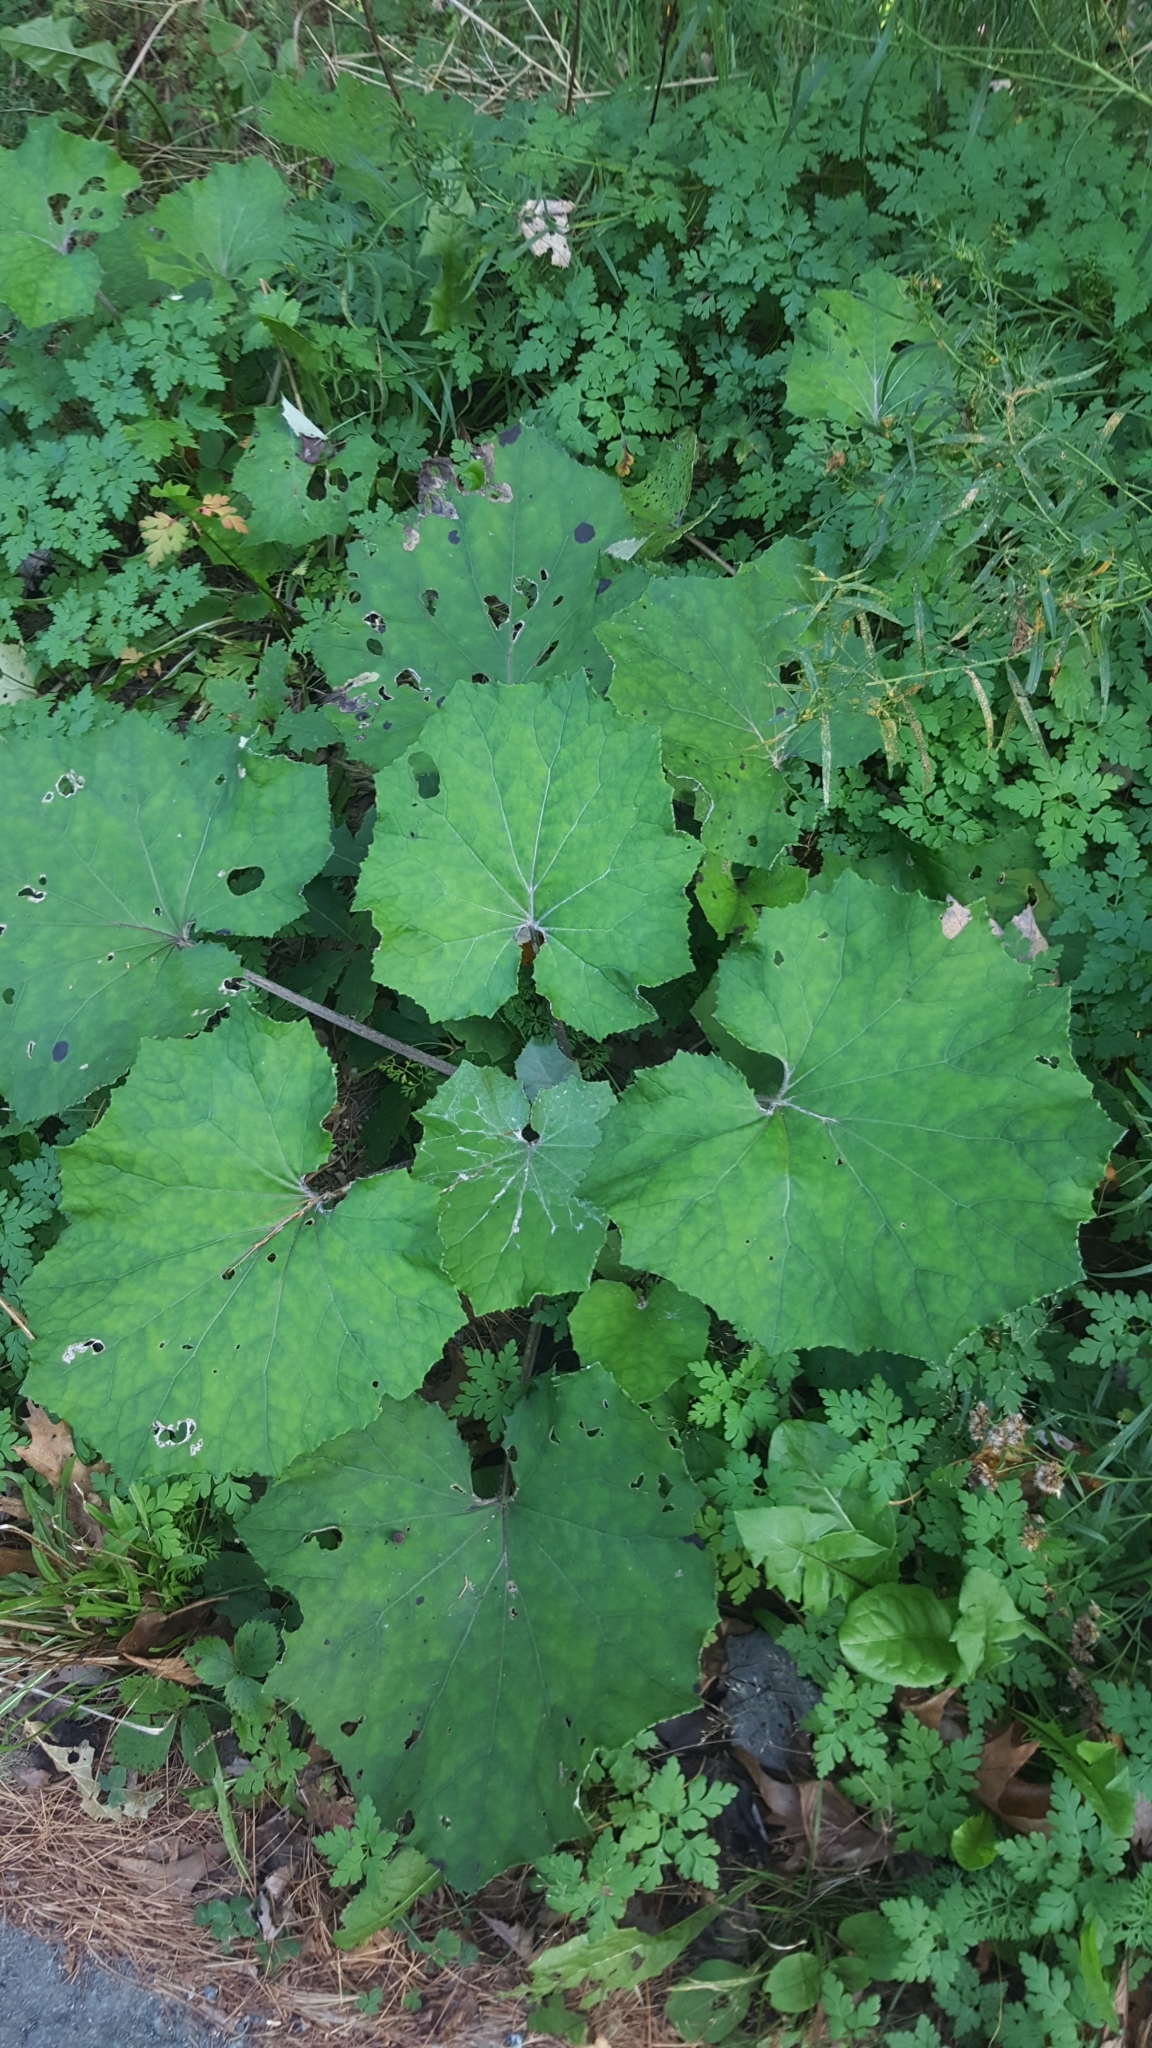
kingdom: Plantae
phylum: Tracheophyta
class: Magnoliopsida
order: Asterales
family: Asteraceae
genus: Tussilago
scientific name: Tussilago farfara
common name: Coltsfoot
